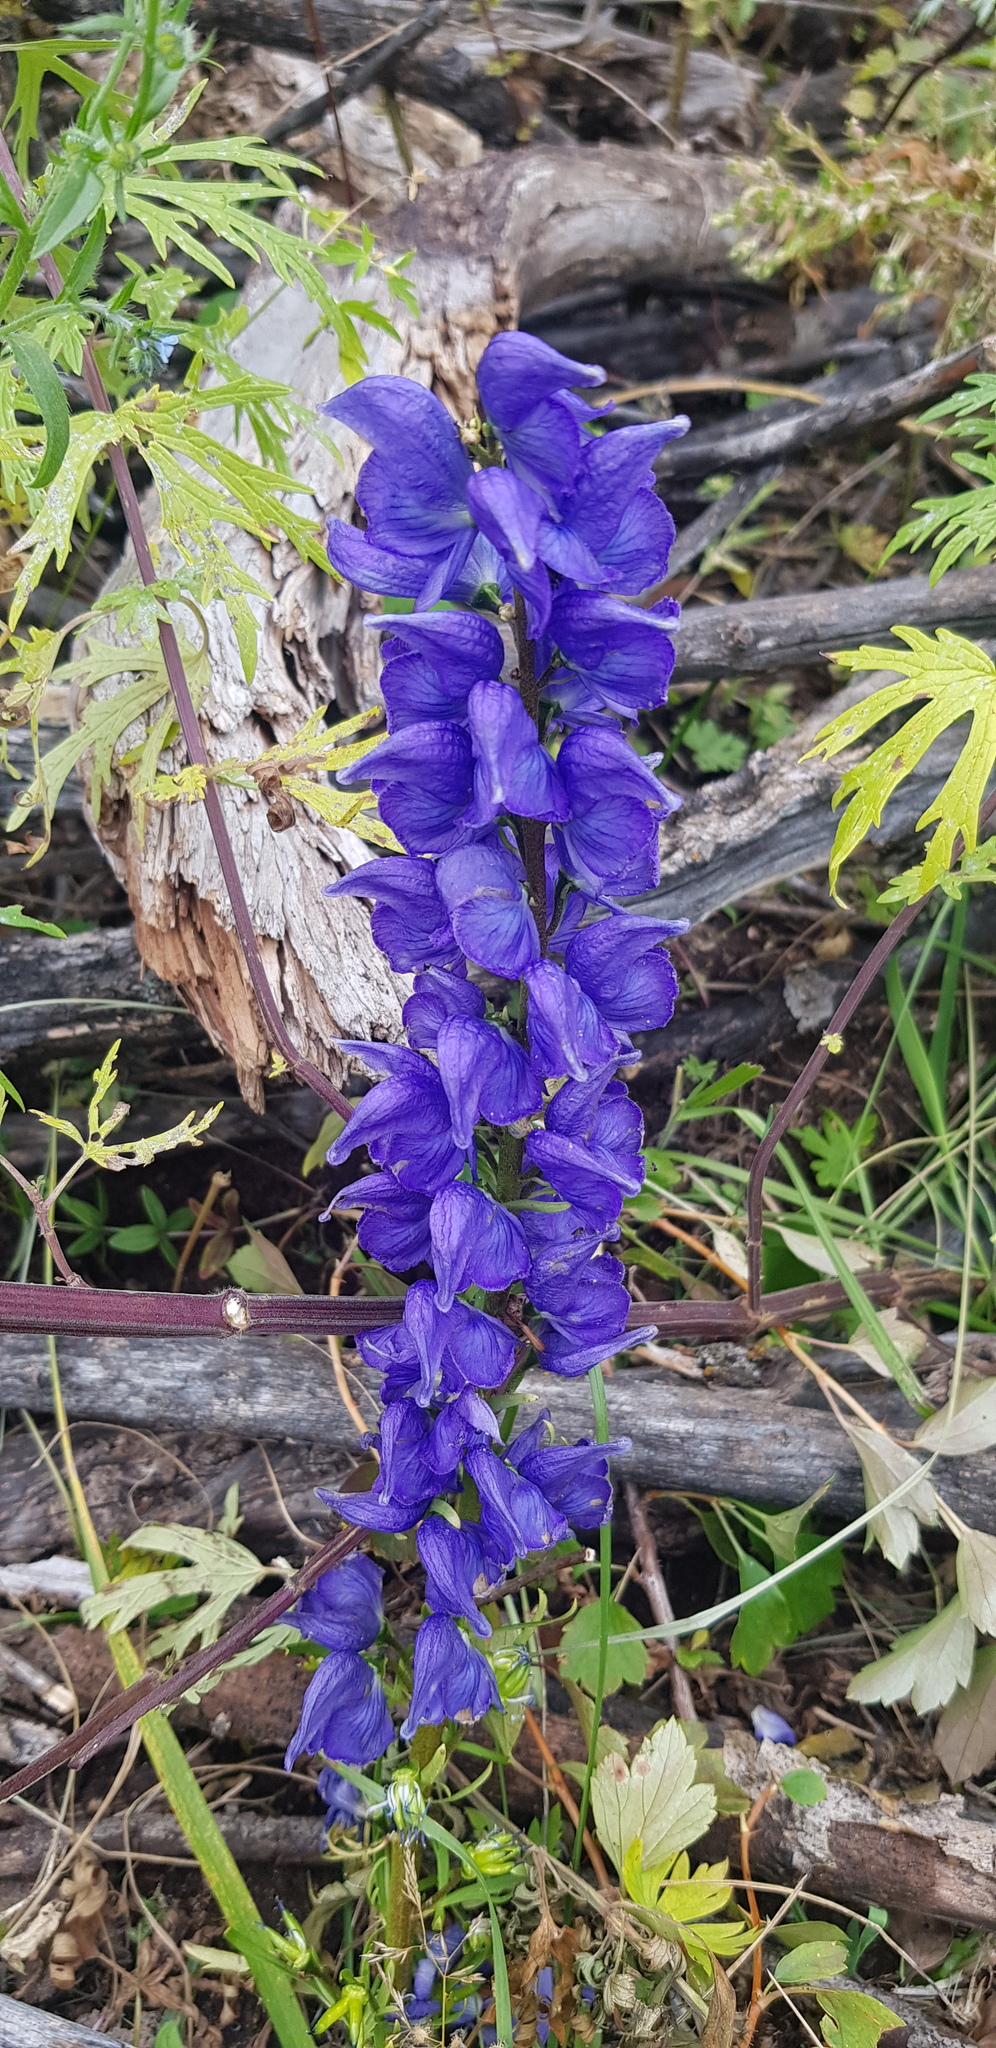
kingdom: Plantae
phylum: Tracheophyta
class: Magnoliopsida
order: Ranunculales
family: Ranunculaceae
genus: Aconitum
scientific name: Aconitum baicalense
